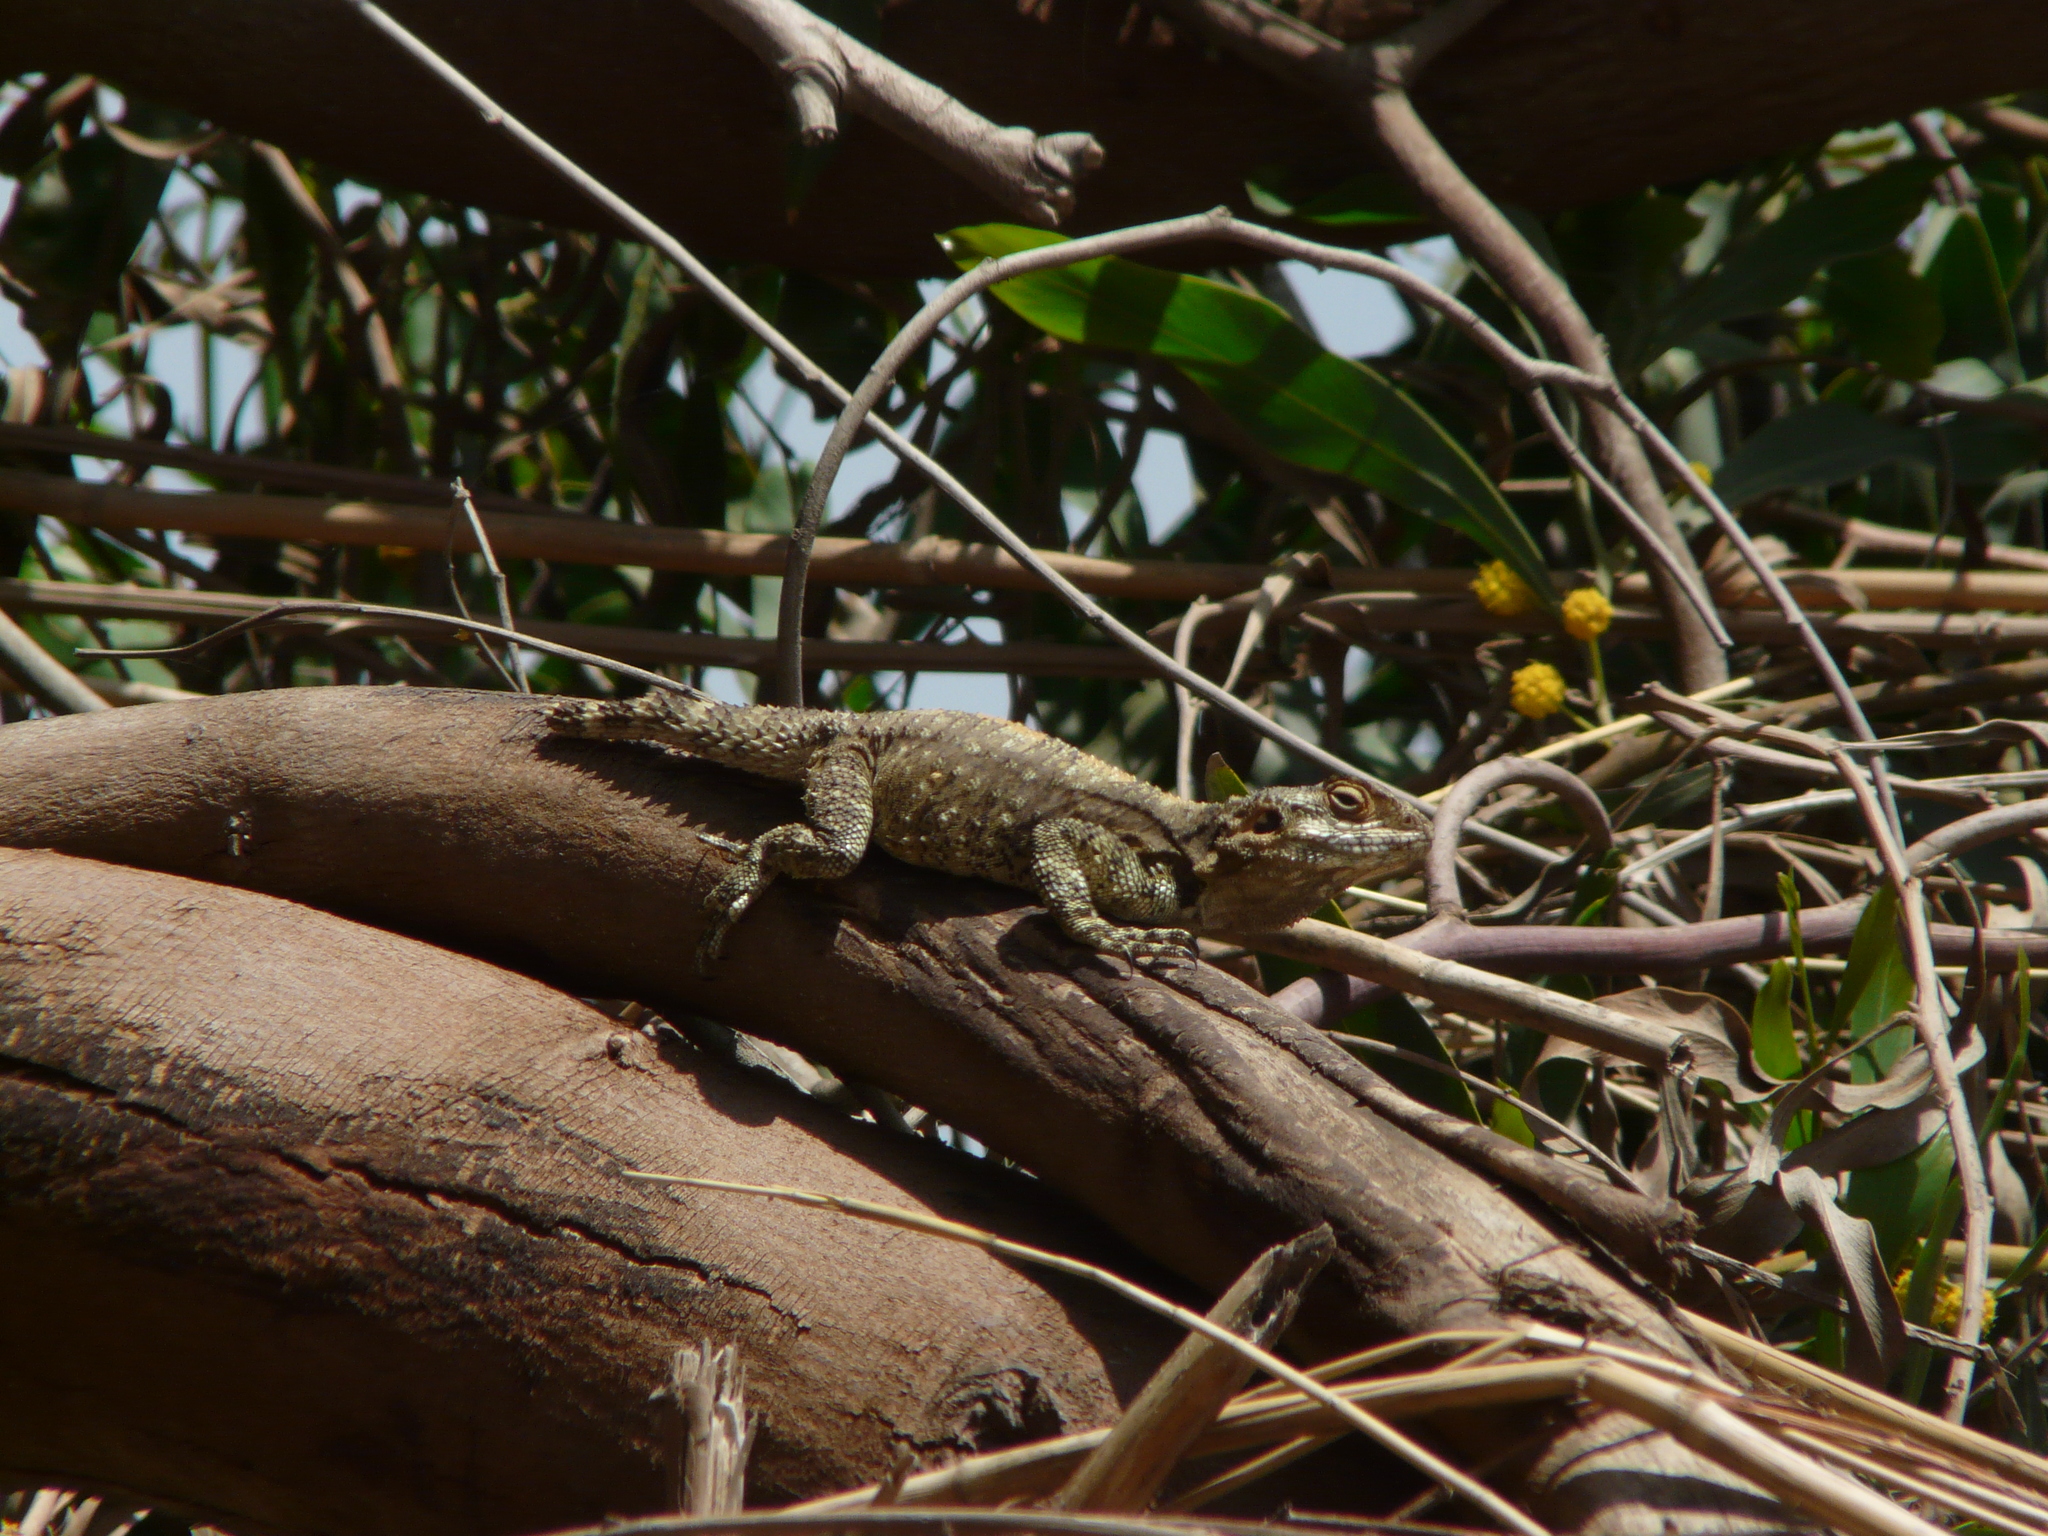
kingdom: Animalia
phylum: Chordata
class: Squamata
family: Agamidae
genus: Laudakia
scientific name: Laudakia vulgaris
